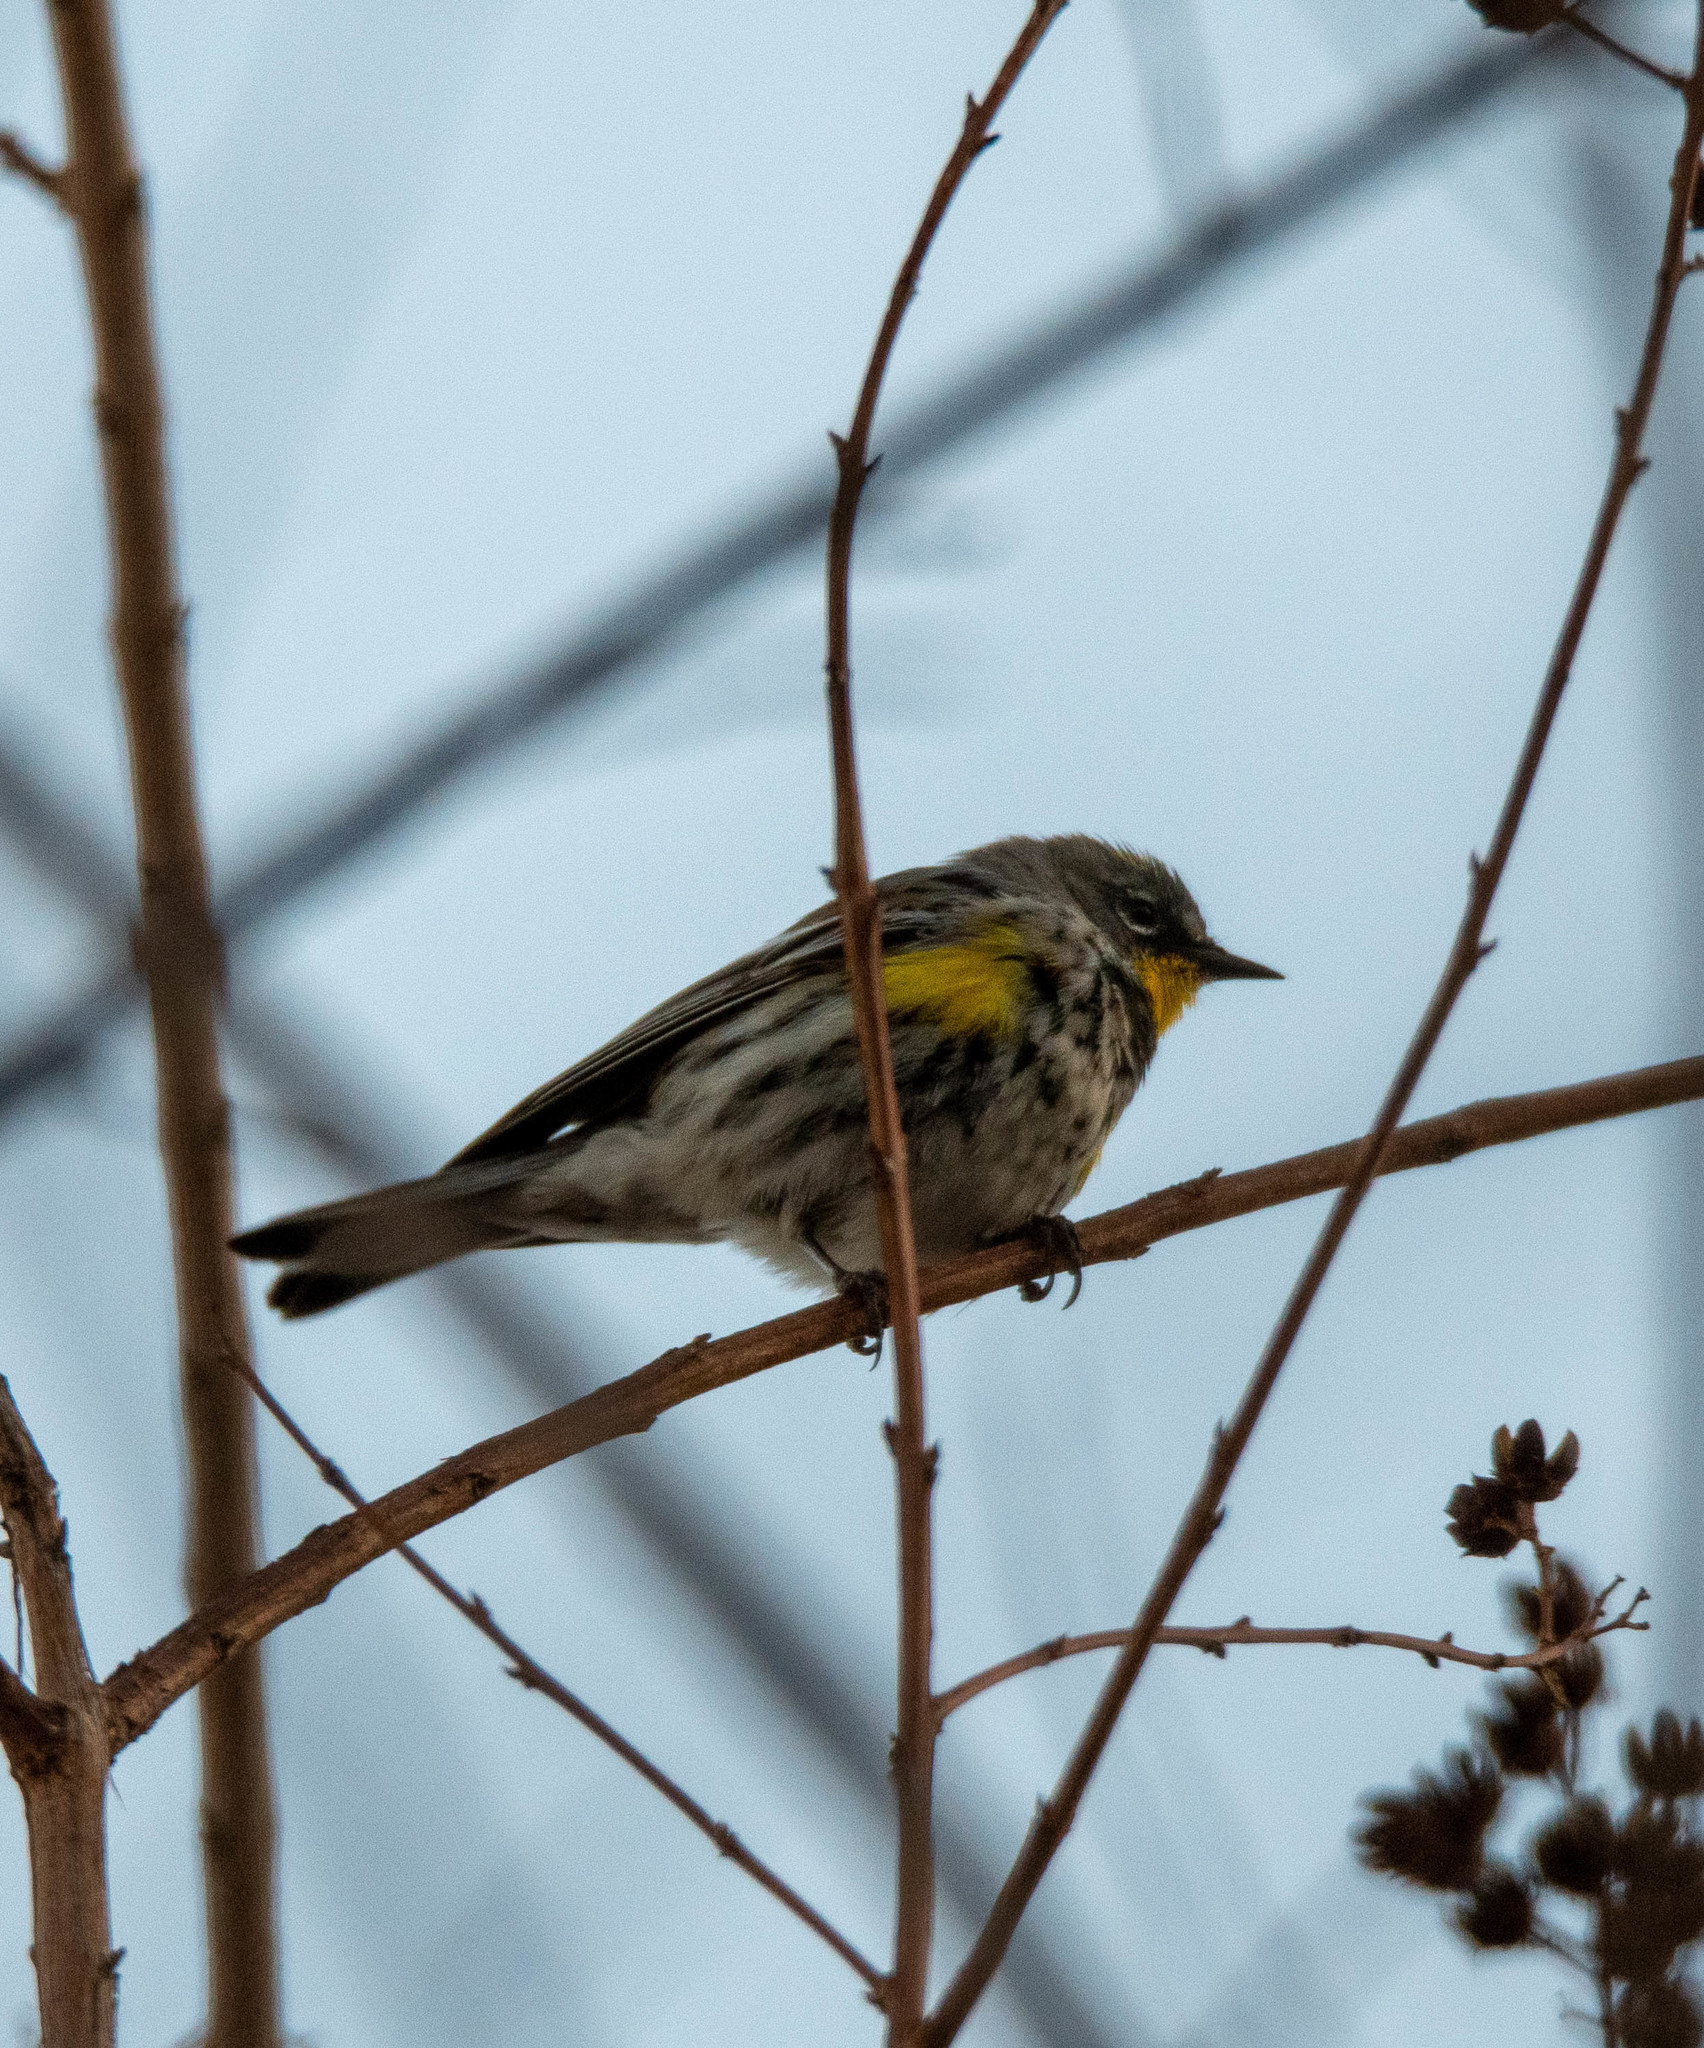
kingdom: Animalia
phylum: Chordata
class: Aves
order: Passeriformes
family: Parulidae
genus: Setophaga
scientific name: Setophaga auduboni
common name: Audubon's warbler
